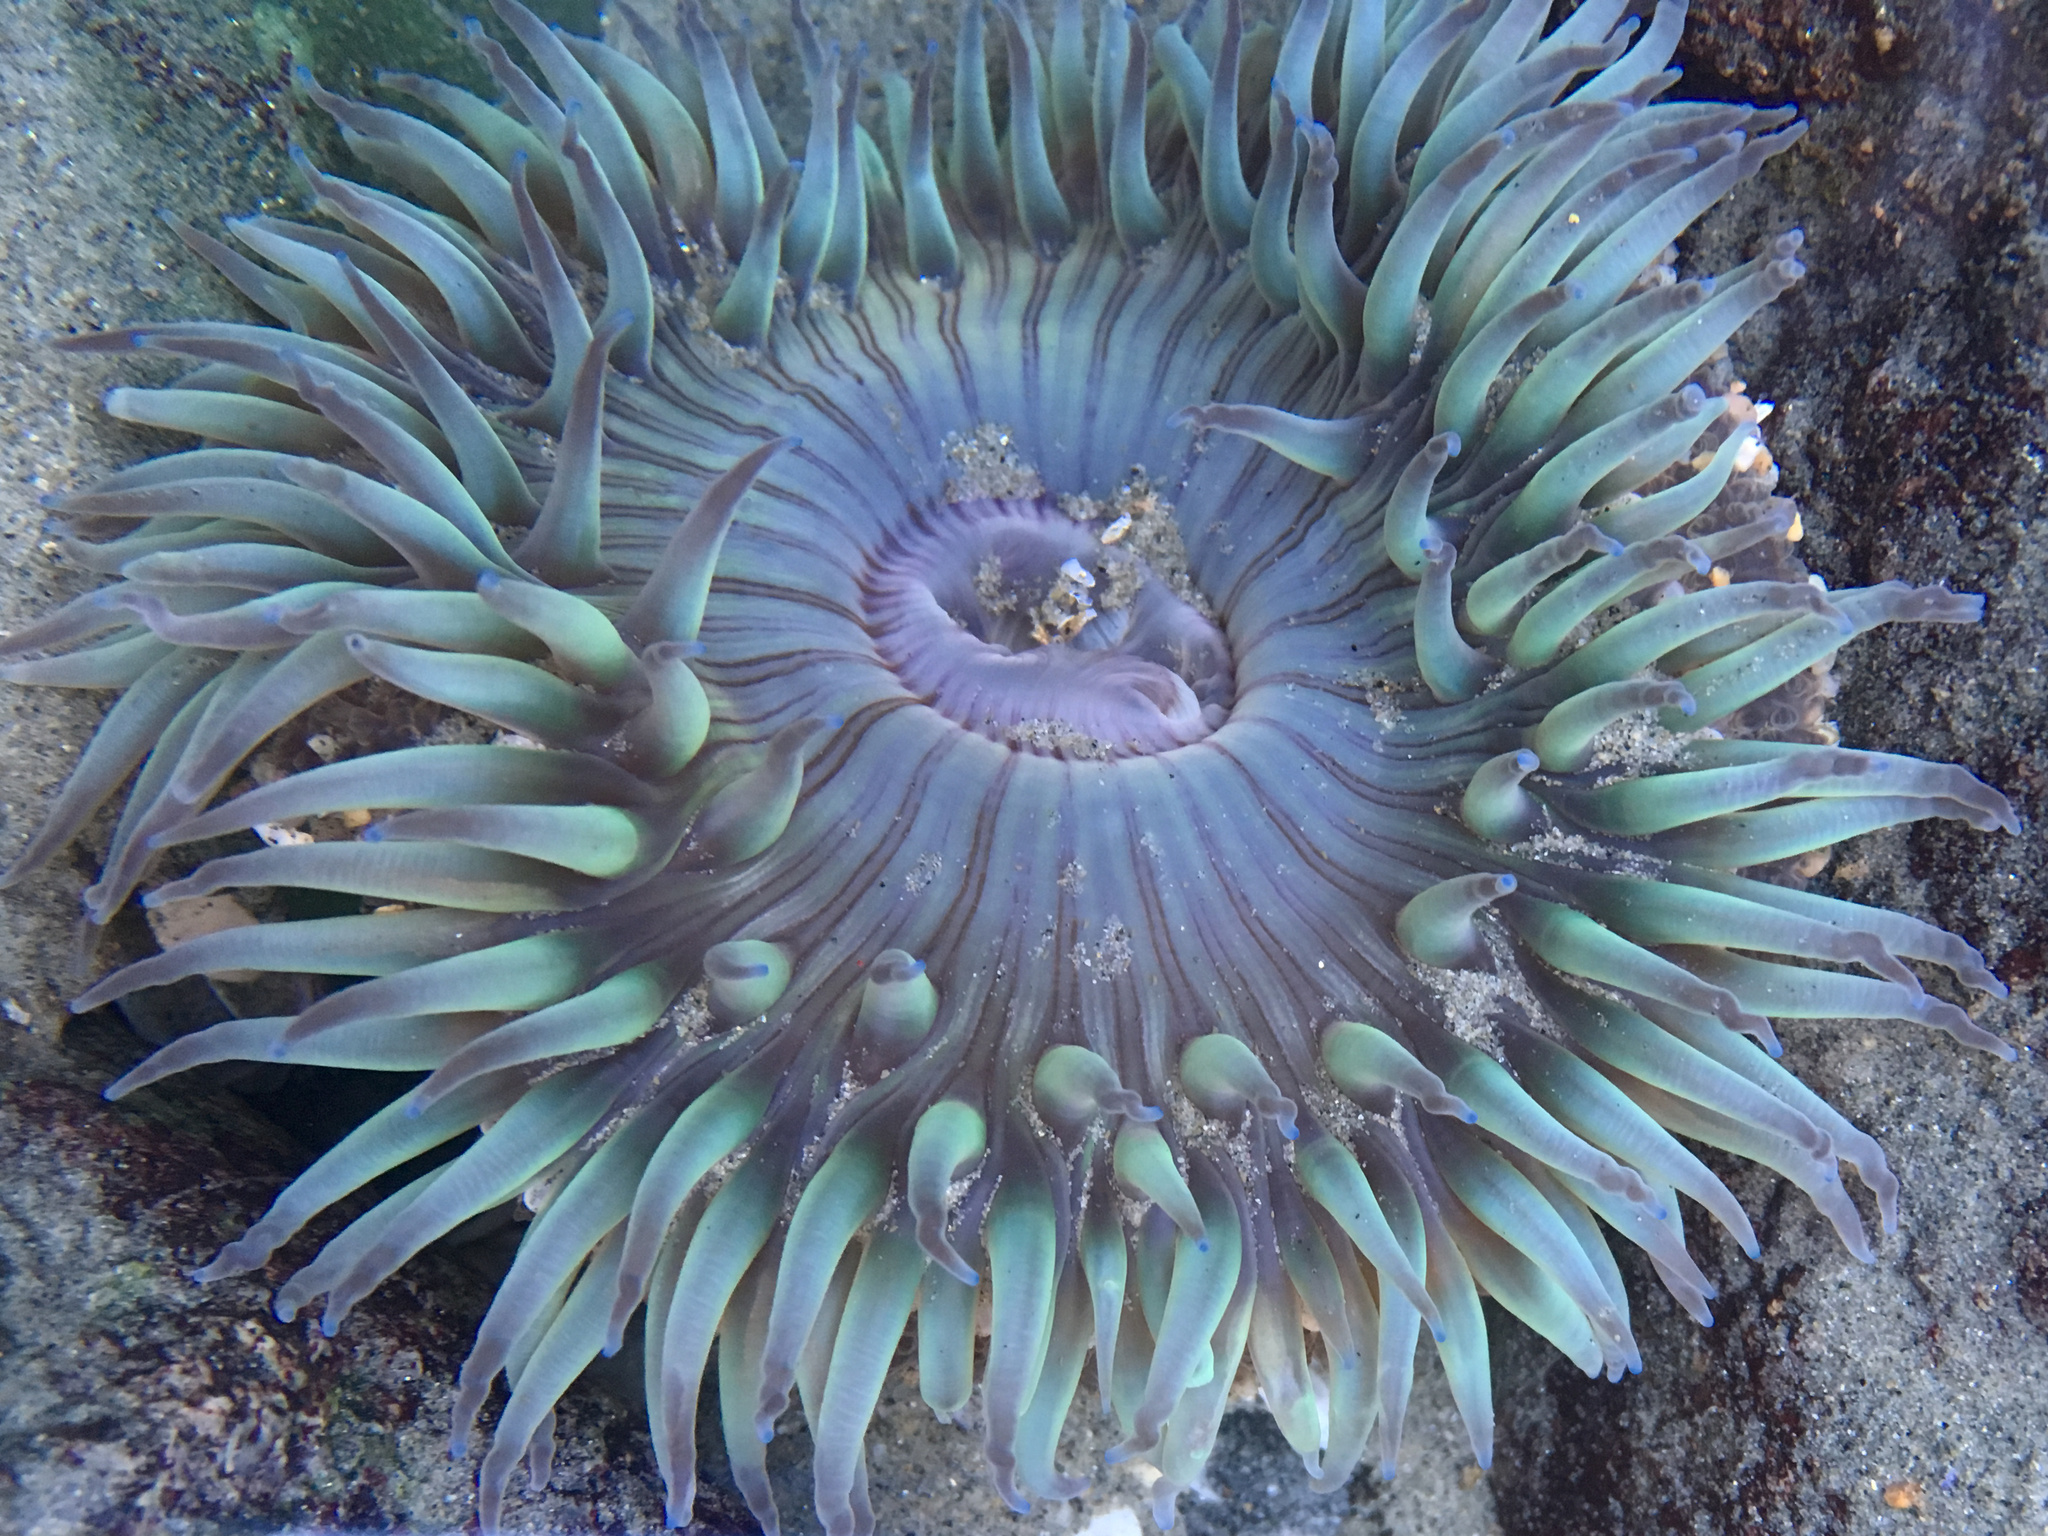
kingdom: Animalia
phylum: Cnidaria
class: Anthozoa
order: Actiniaria
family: Actiniidae
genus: Anthopleura
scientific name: Anthopleura sola
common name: Sun anemone
